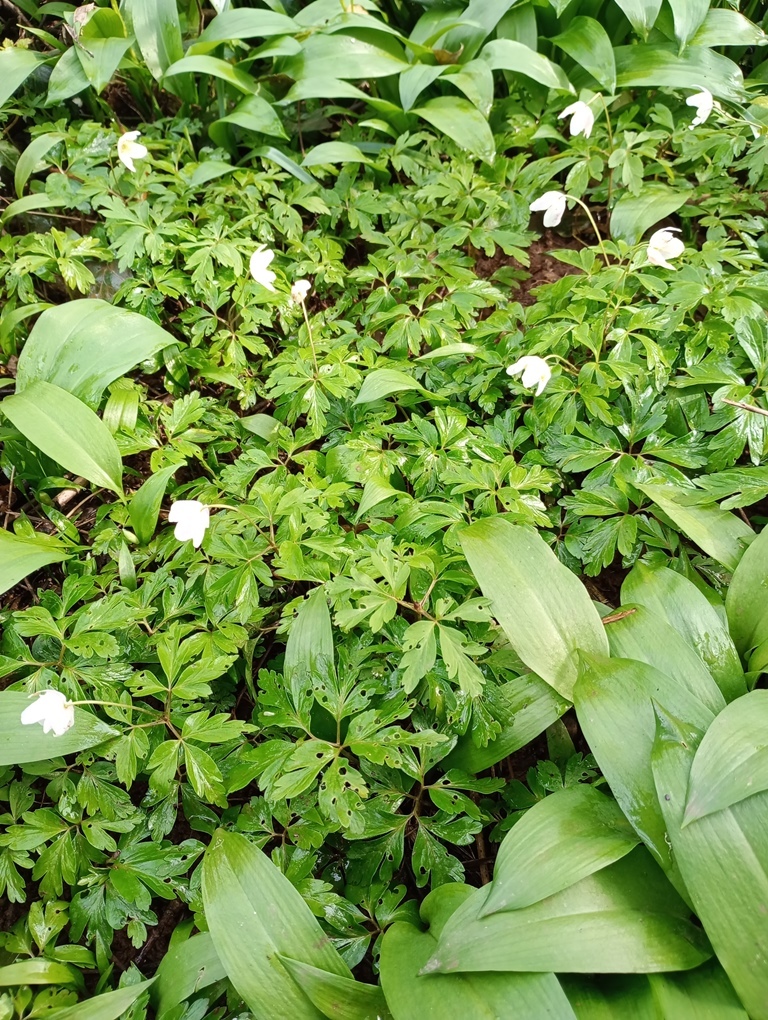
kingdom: Plantae
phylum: Tracheophyta
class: Magnoliopsida
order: Ranunculales
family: Ranunculaceae
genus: Anemone
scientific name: Anemone nemorosa
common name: Wood anemone
